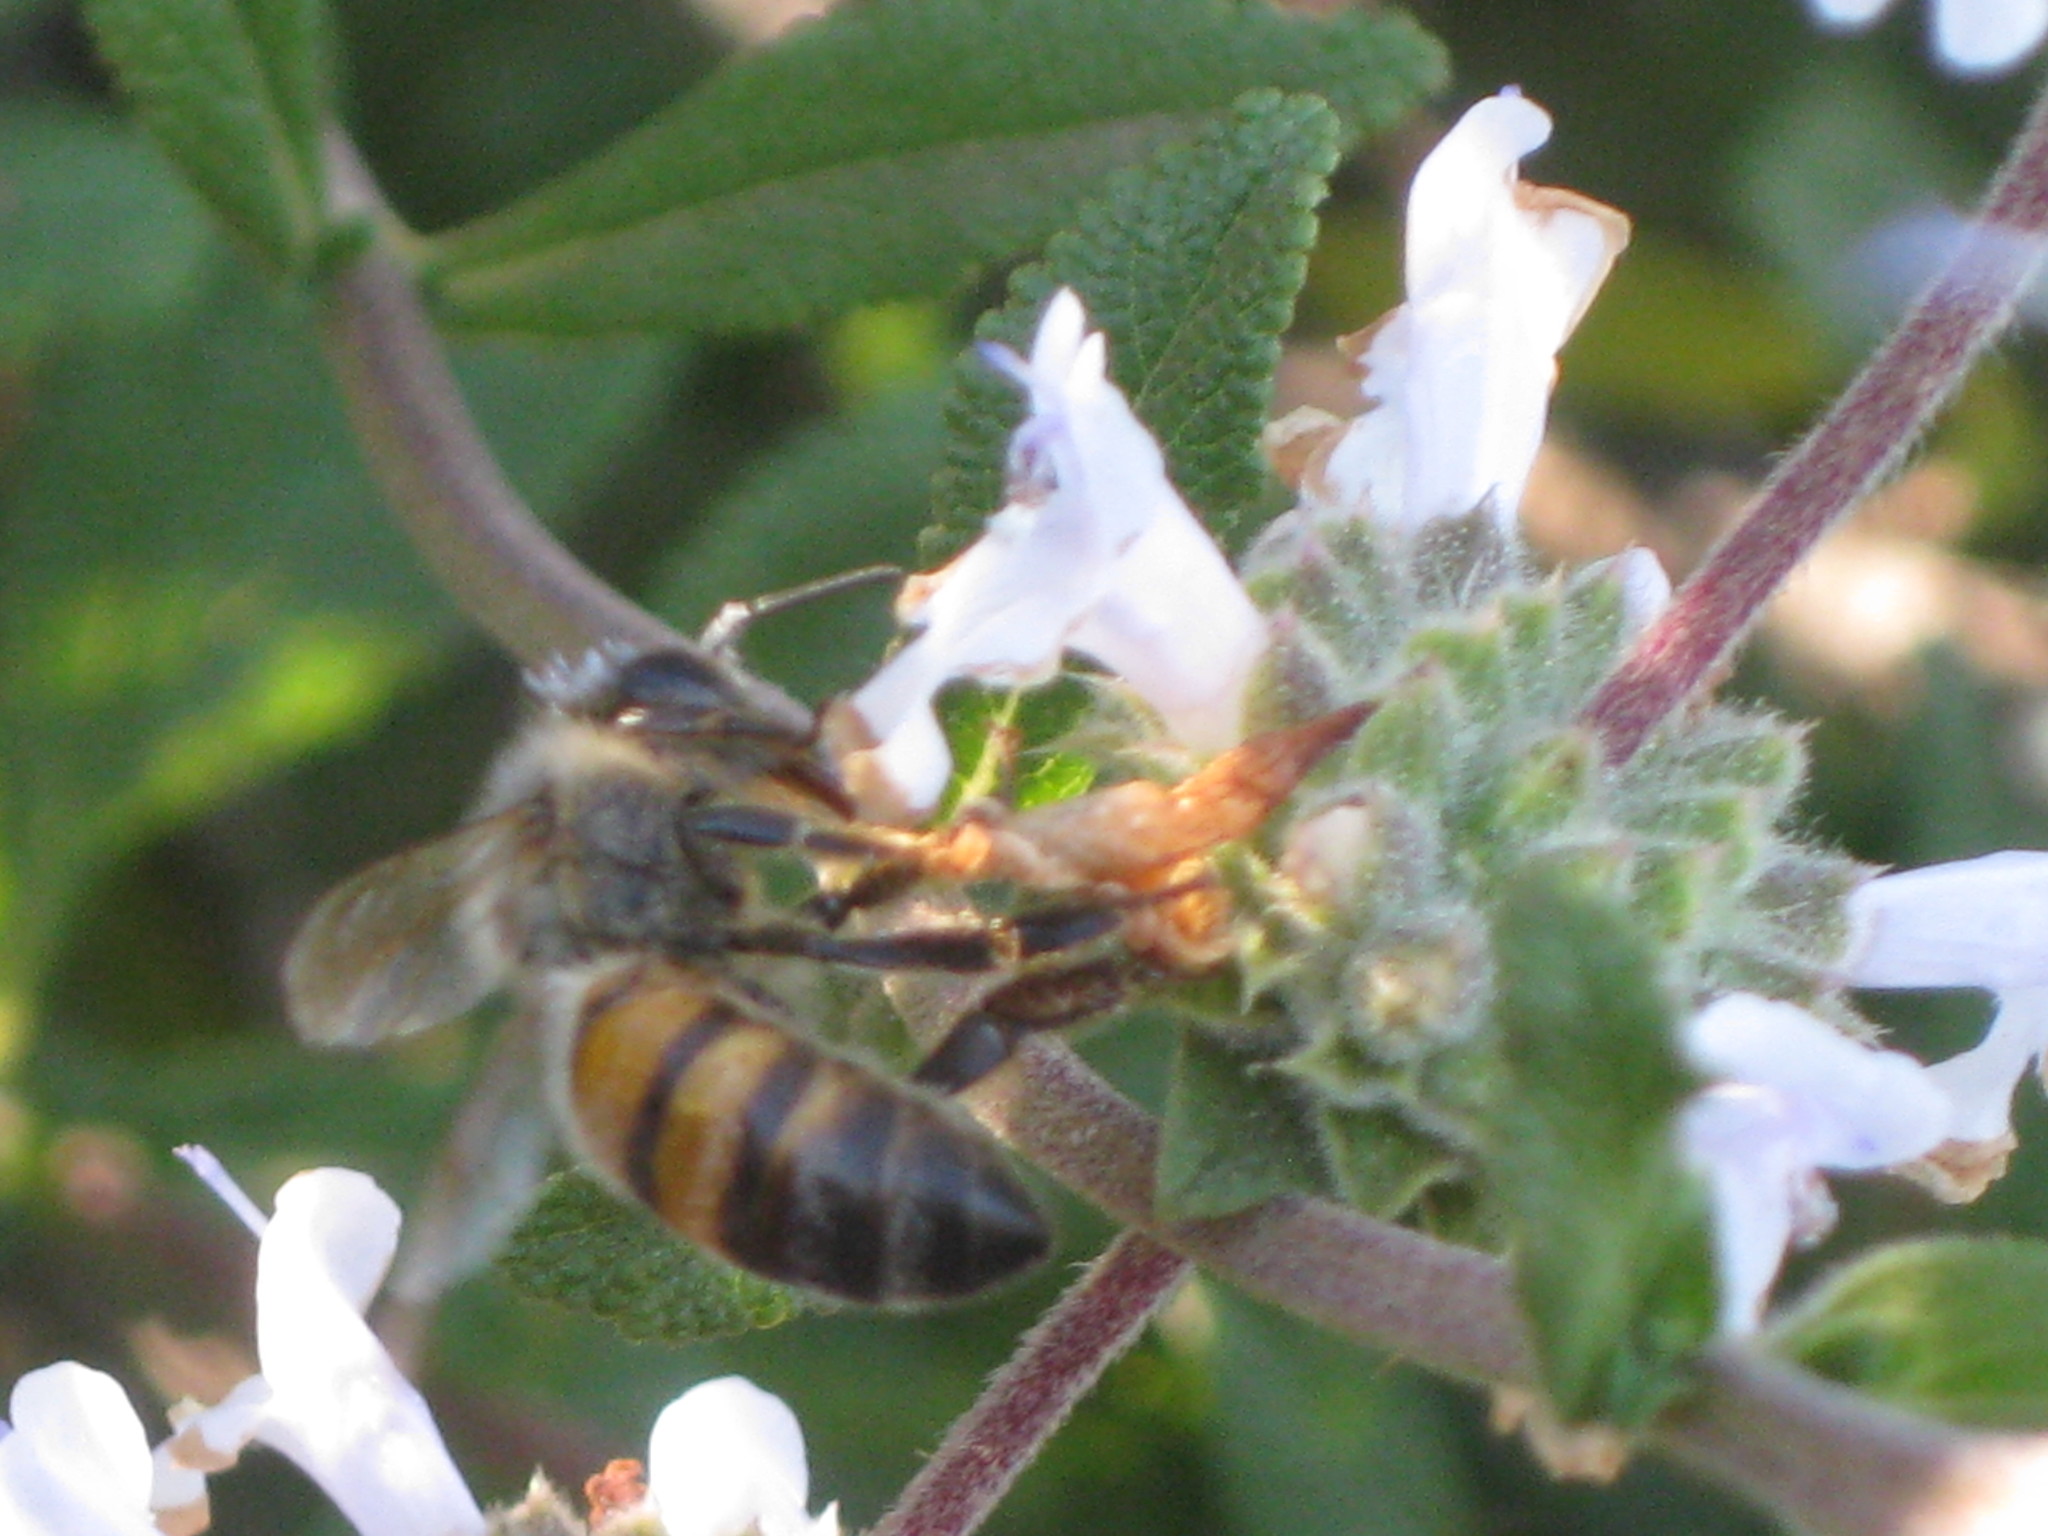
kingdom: Animalia
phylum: Arthropoda
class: Insecta
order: Hymenoptera
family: Apidae
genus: Apis
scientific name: Apis mellifera
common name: Honey bee
